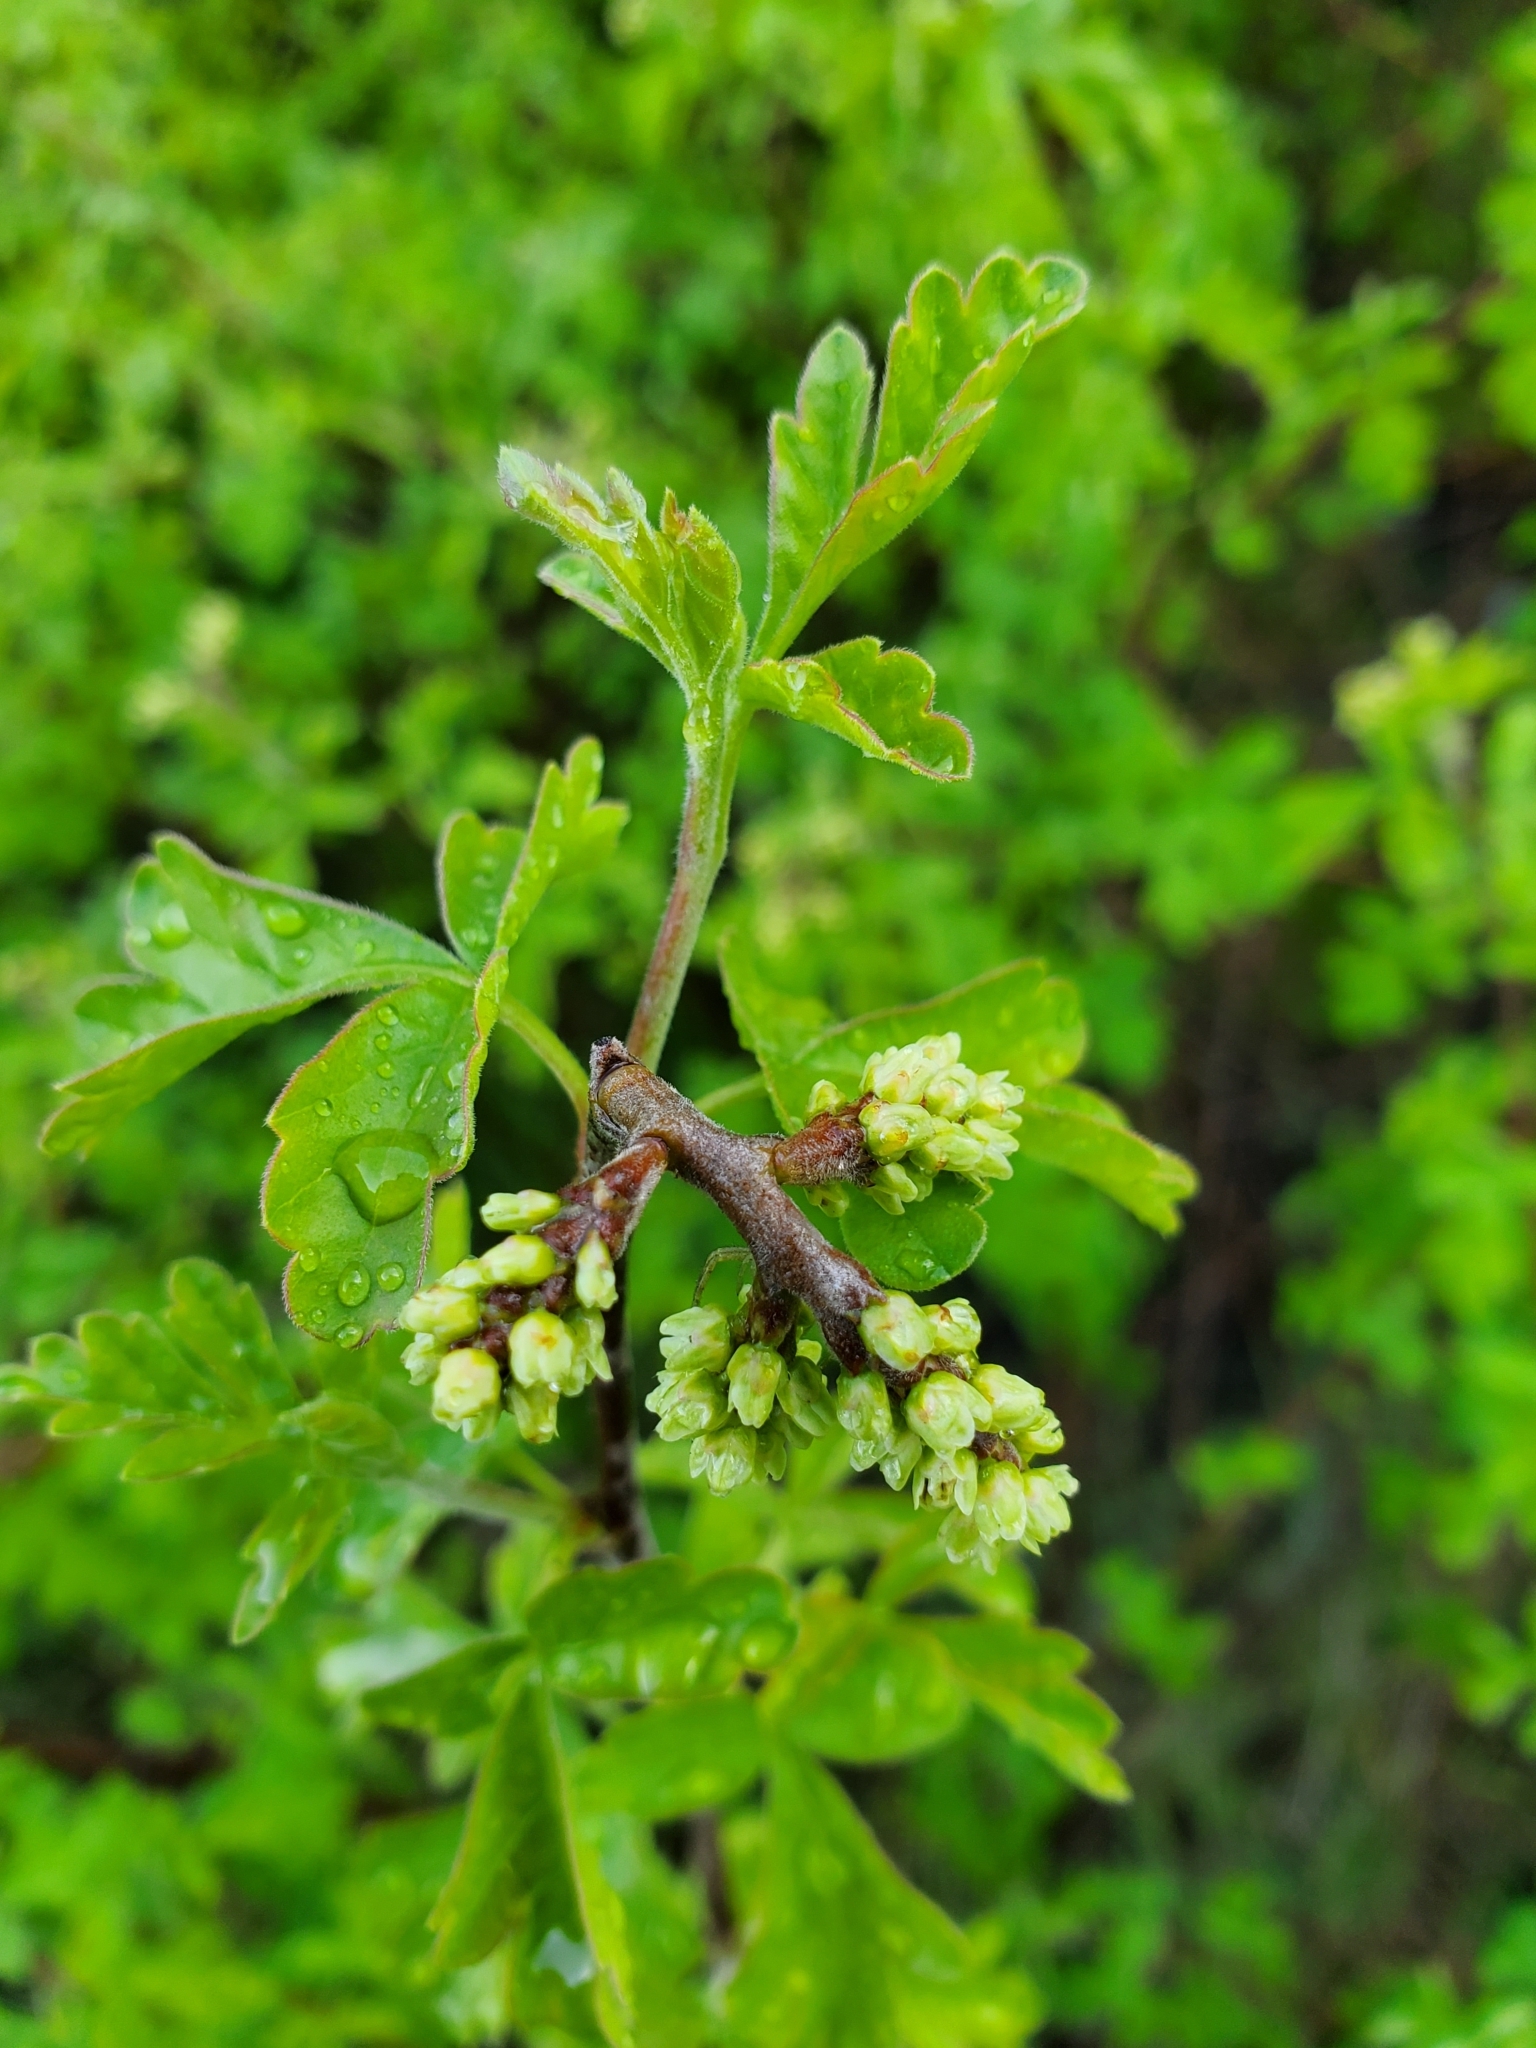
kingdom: Plantae
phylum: Tracheophyta
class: Magnoliopsida
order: Sapindales
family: Anacardiaceae
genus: Rhus
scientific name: Rhus aromatica
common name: Aromatic sumac
